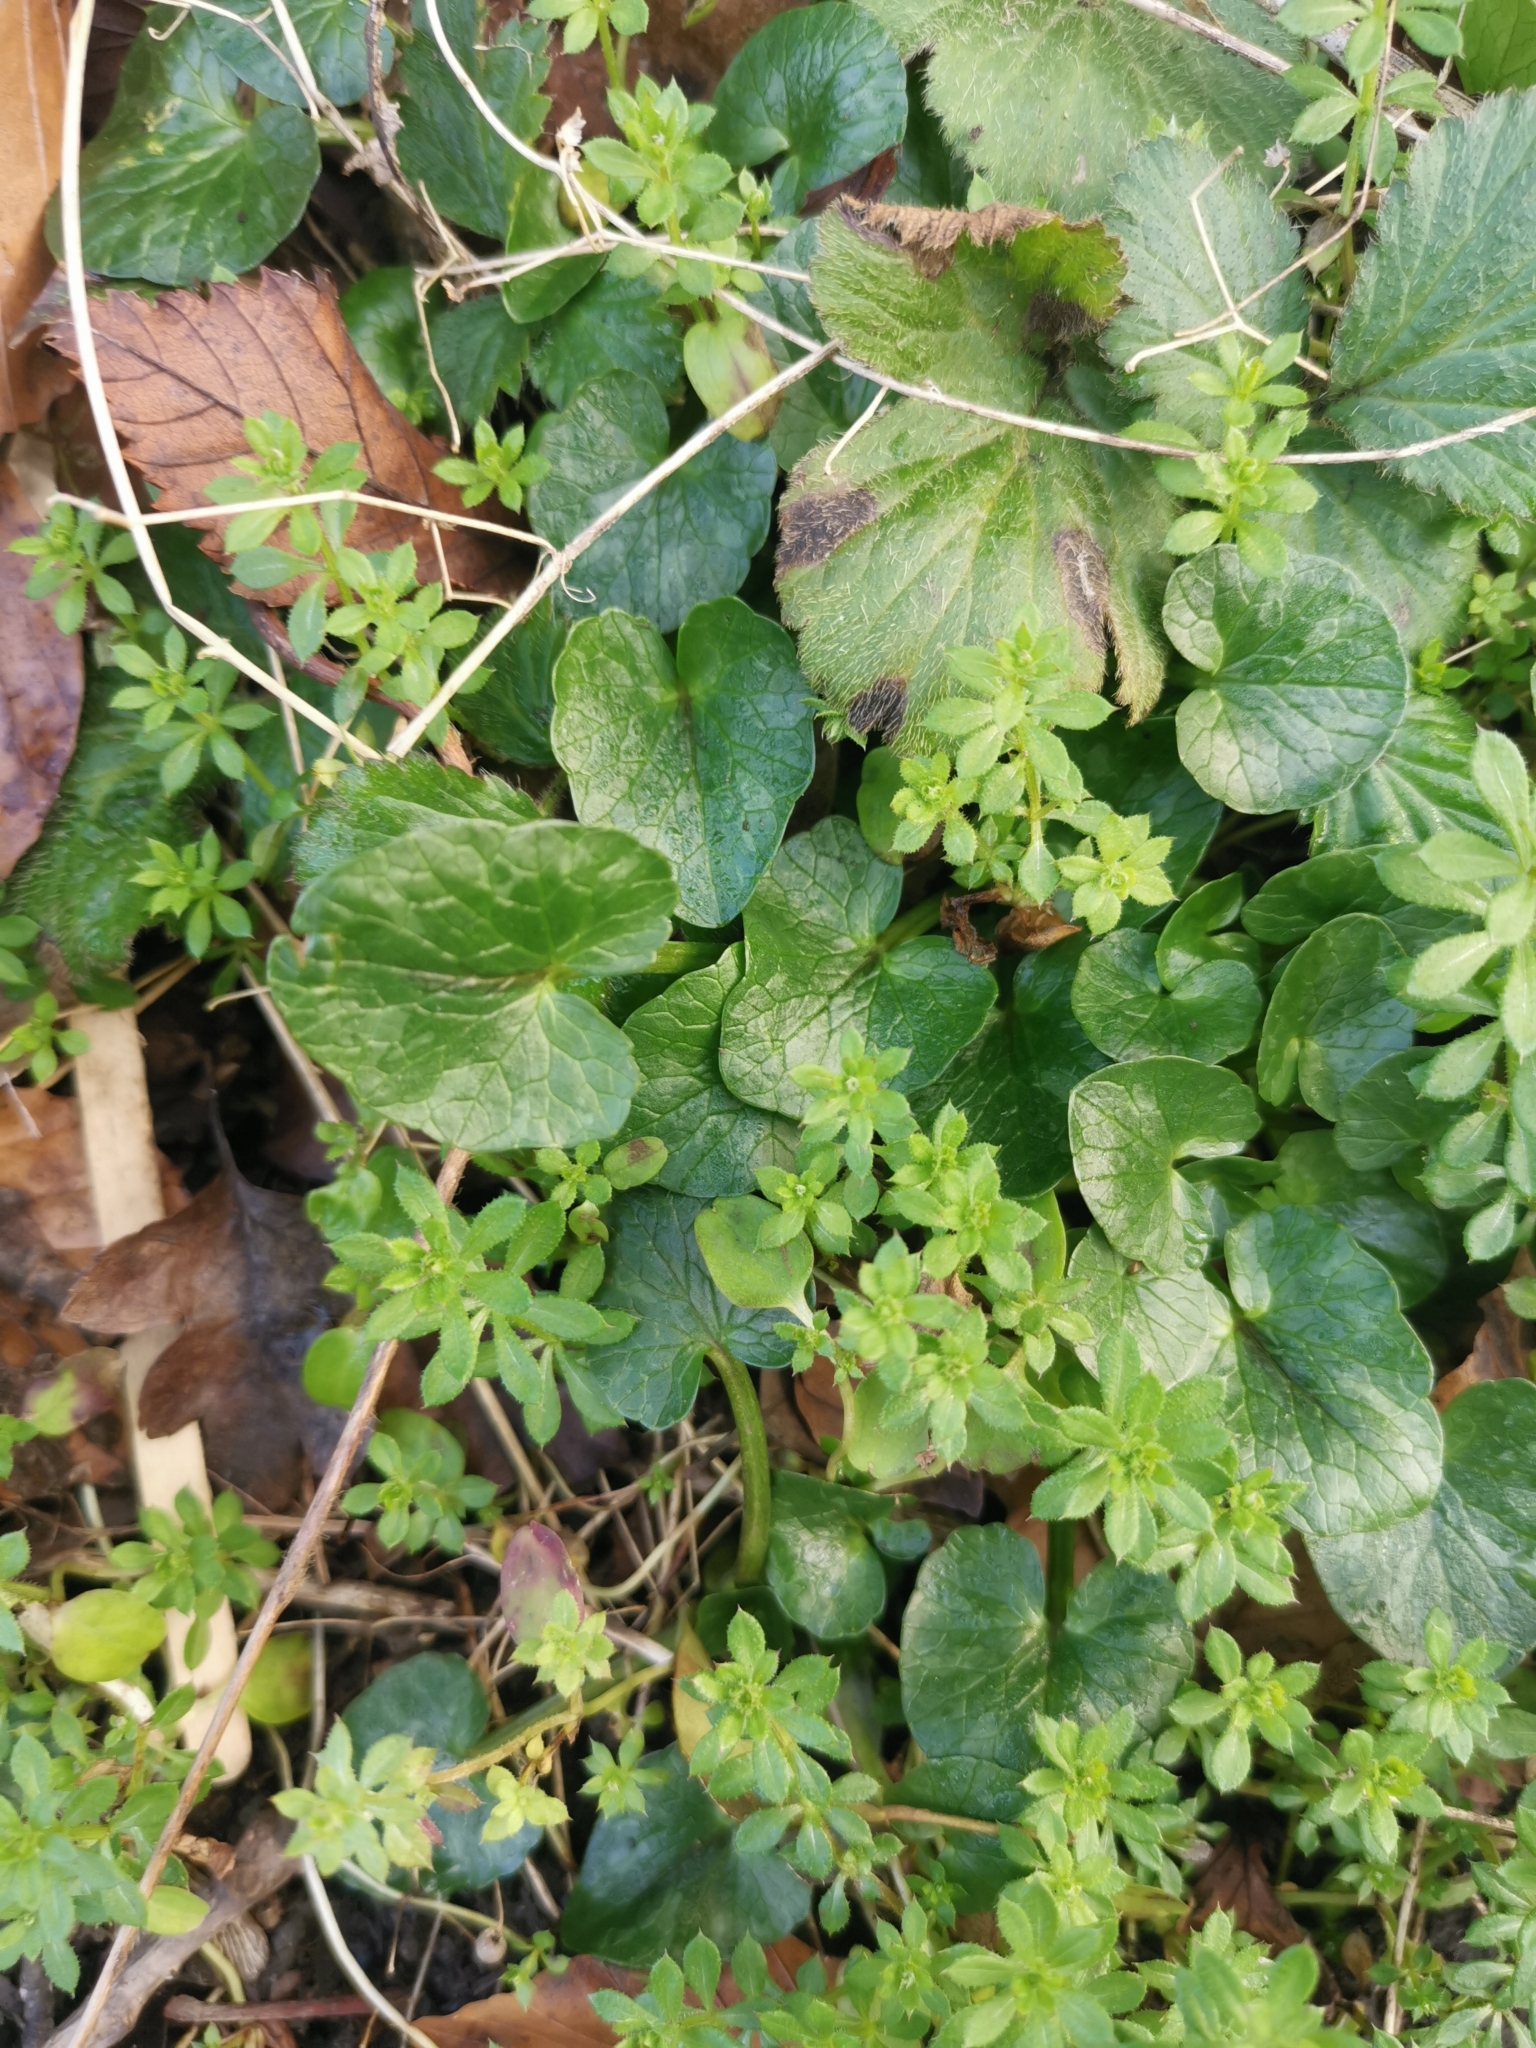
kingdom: Plantae
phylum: Tracheophyta
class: Magnoliopsida
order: Ranunculales
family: Ranunculaceae
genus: Ficaria
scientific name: Ficaria verna
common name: Lesser celandine
